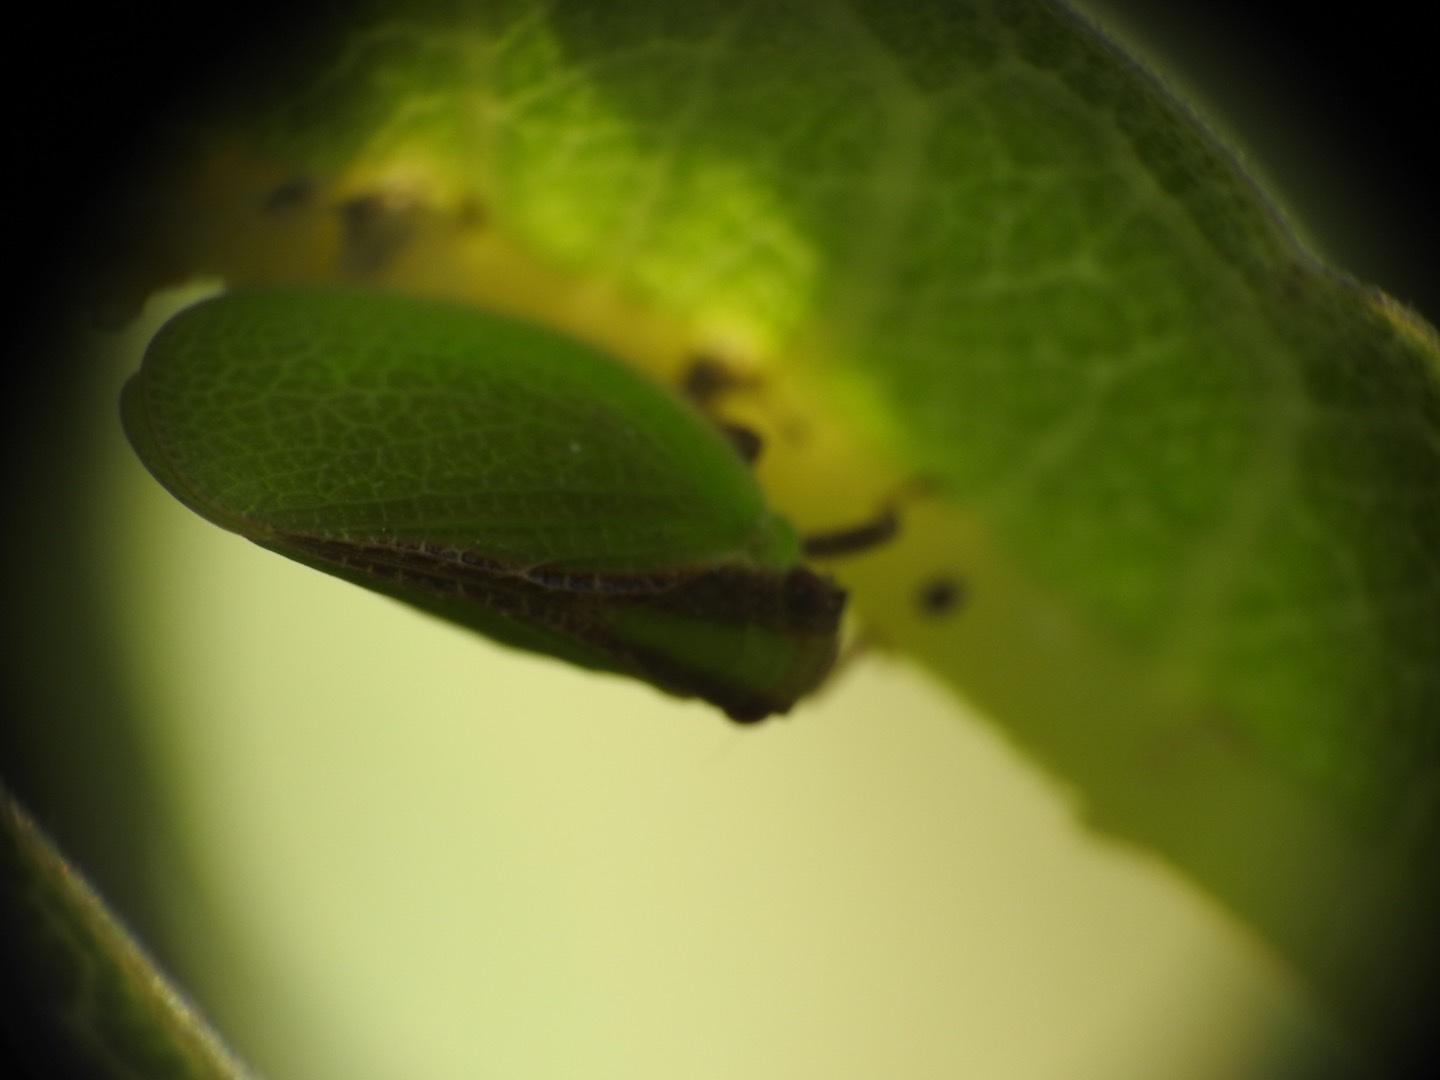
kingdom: Animalia
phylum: Arthropoda
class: Insecta
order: Hemiptera
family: Acanaloniidae
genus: Acanalonia
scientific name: Acanalonia bivittata
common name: Two-striped planthopper
